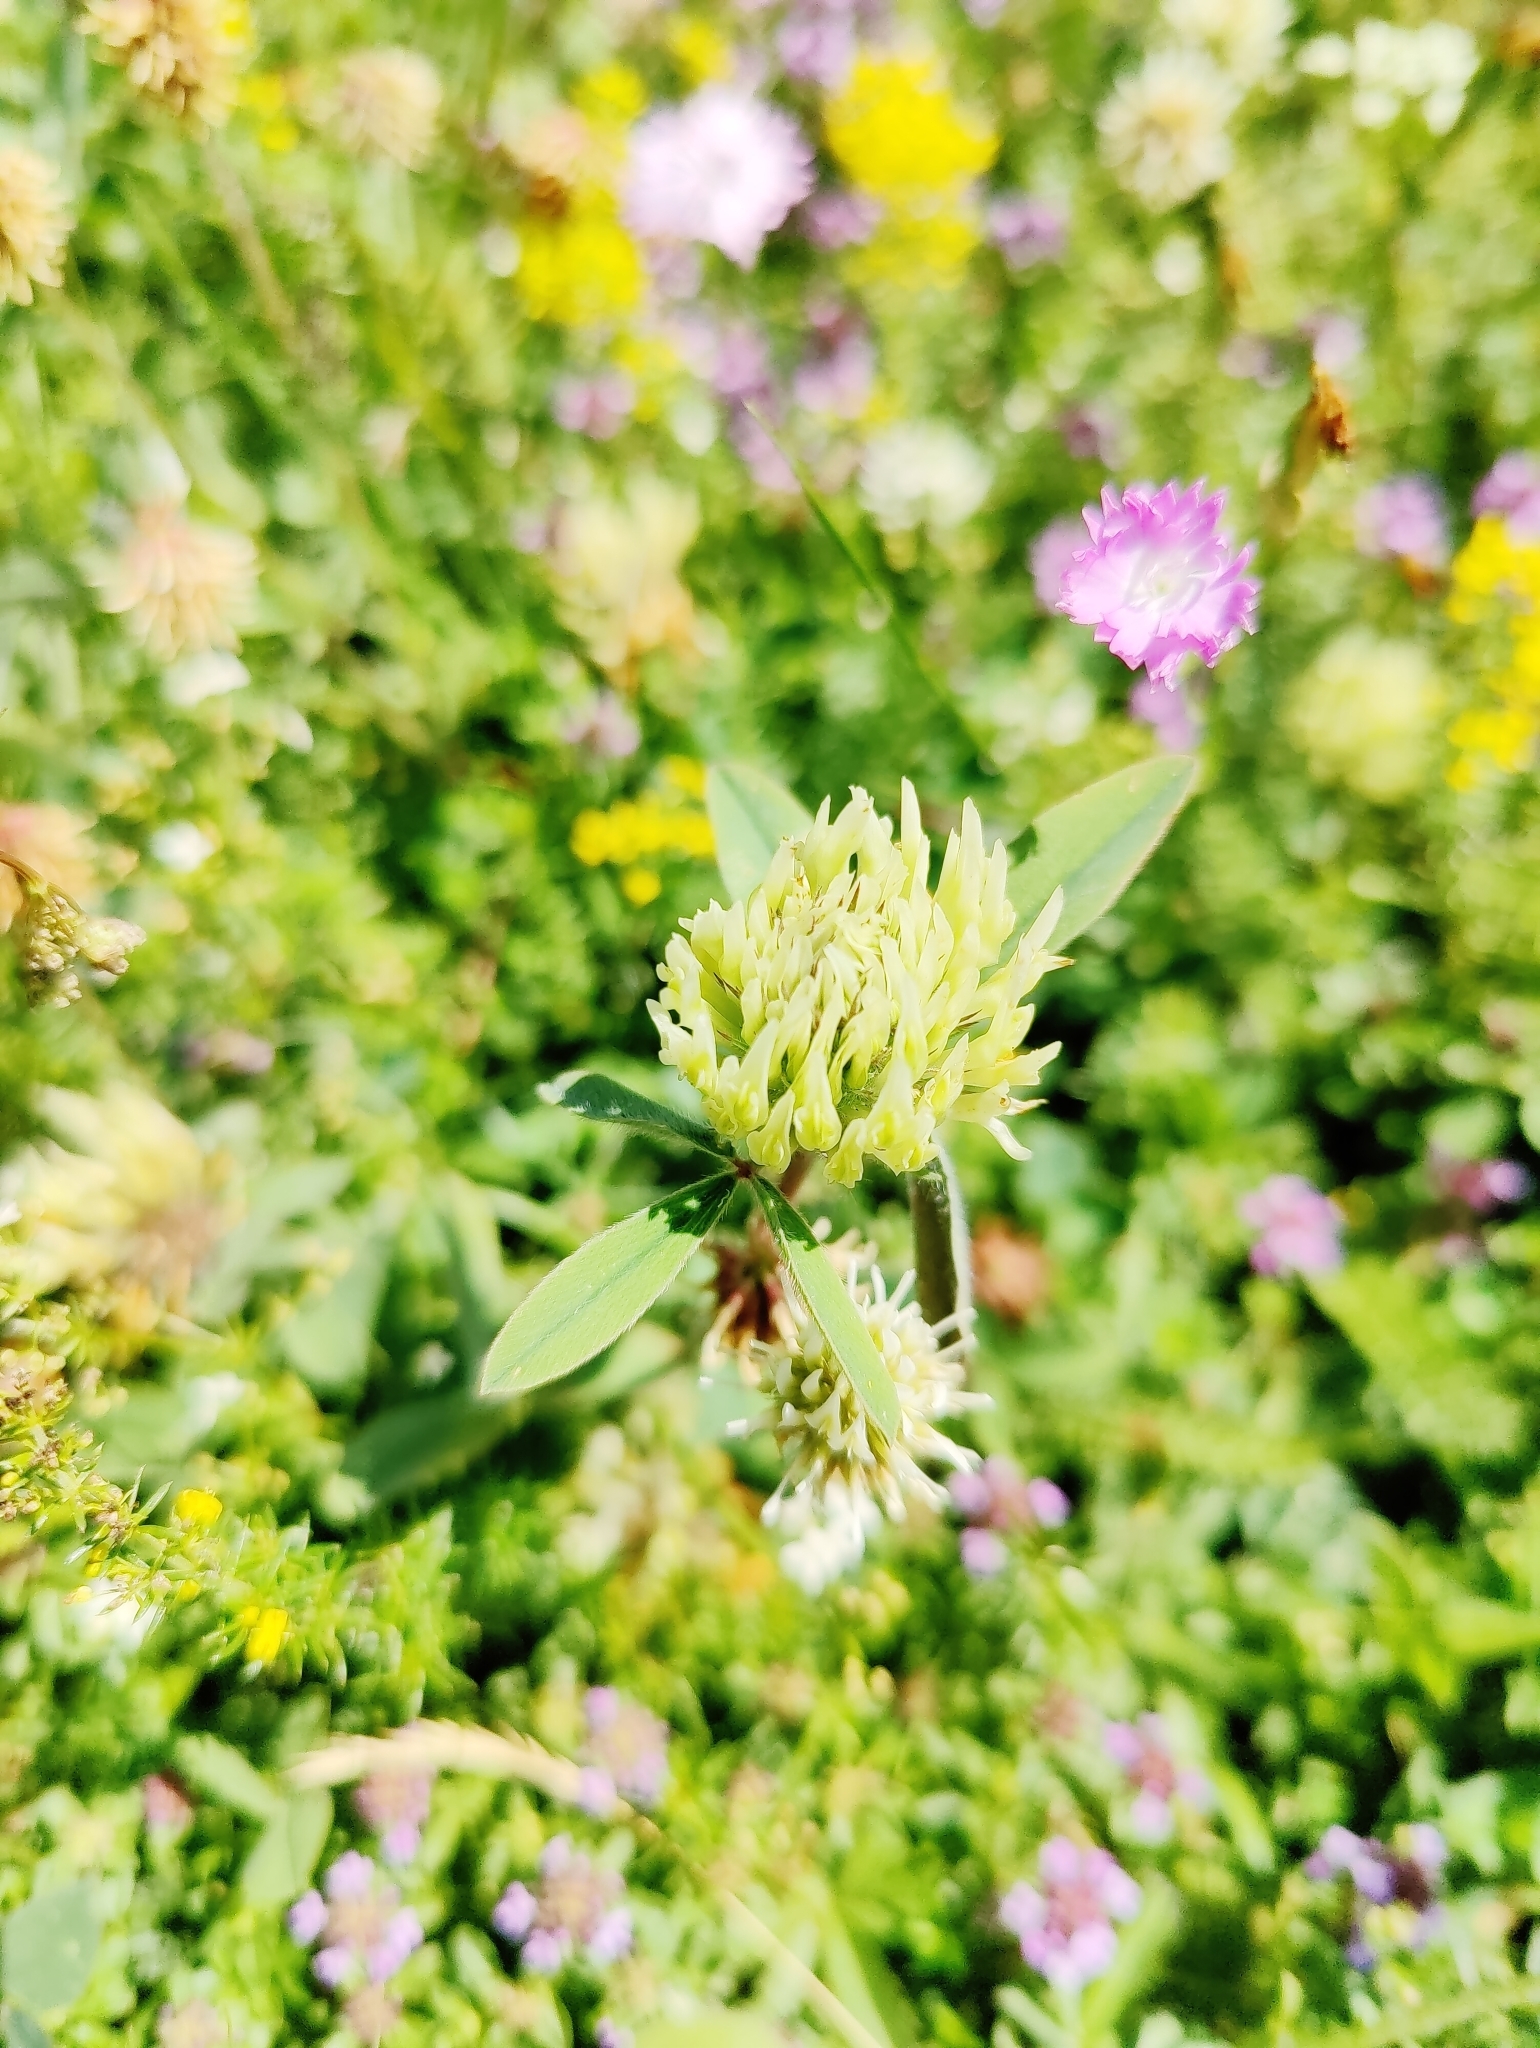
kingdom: Plantae
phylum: Tracheophyta
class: Magnoliopsida
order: Fabales
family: Fabaceae
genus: Trifolium
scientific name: Trifolium ochroleucon
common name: Sulphur clover
